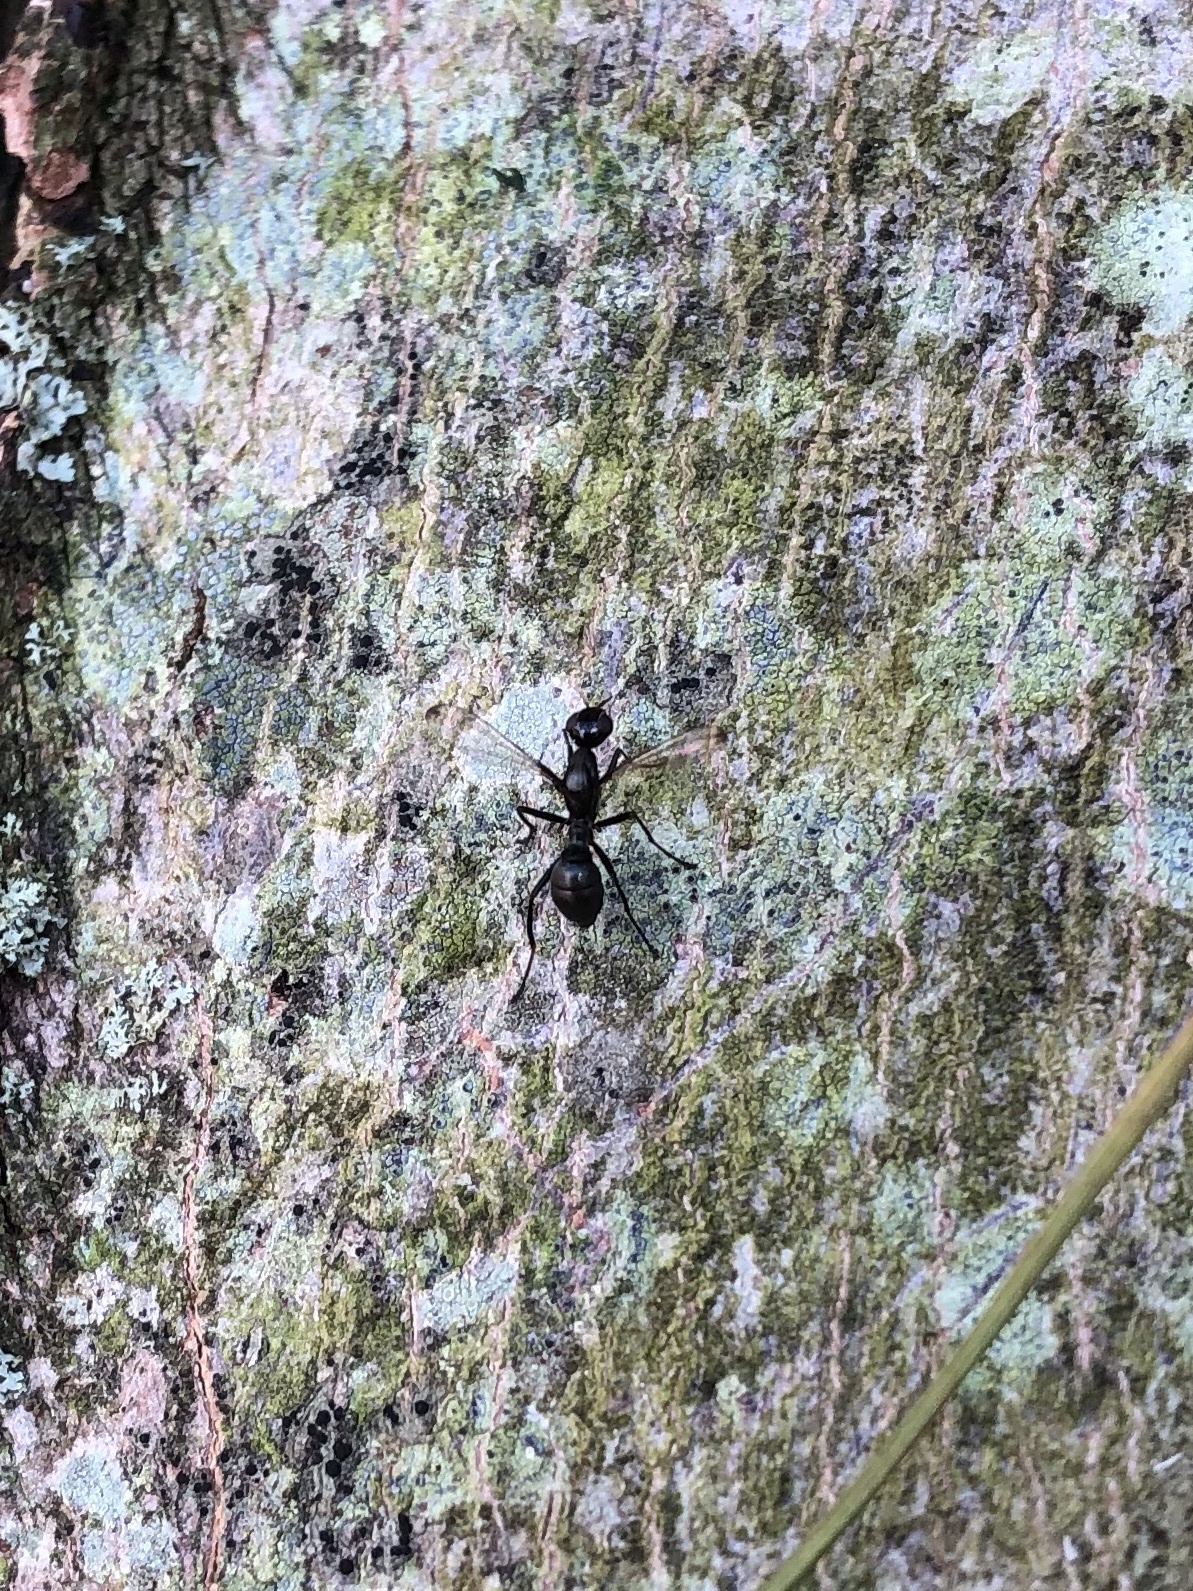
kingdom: Animalia
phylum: Arthropoda
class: Insecta
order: Diptera
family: Ulidiidae
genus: Myrmecothea
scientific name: Myrmecothea myrmecoides
